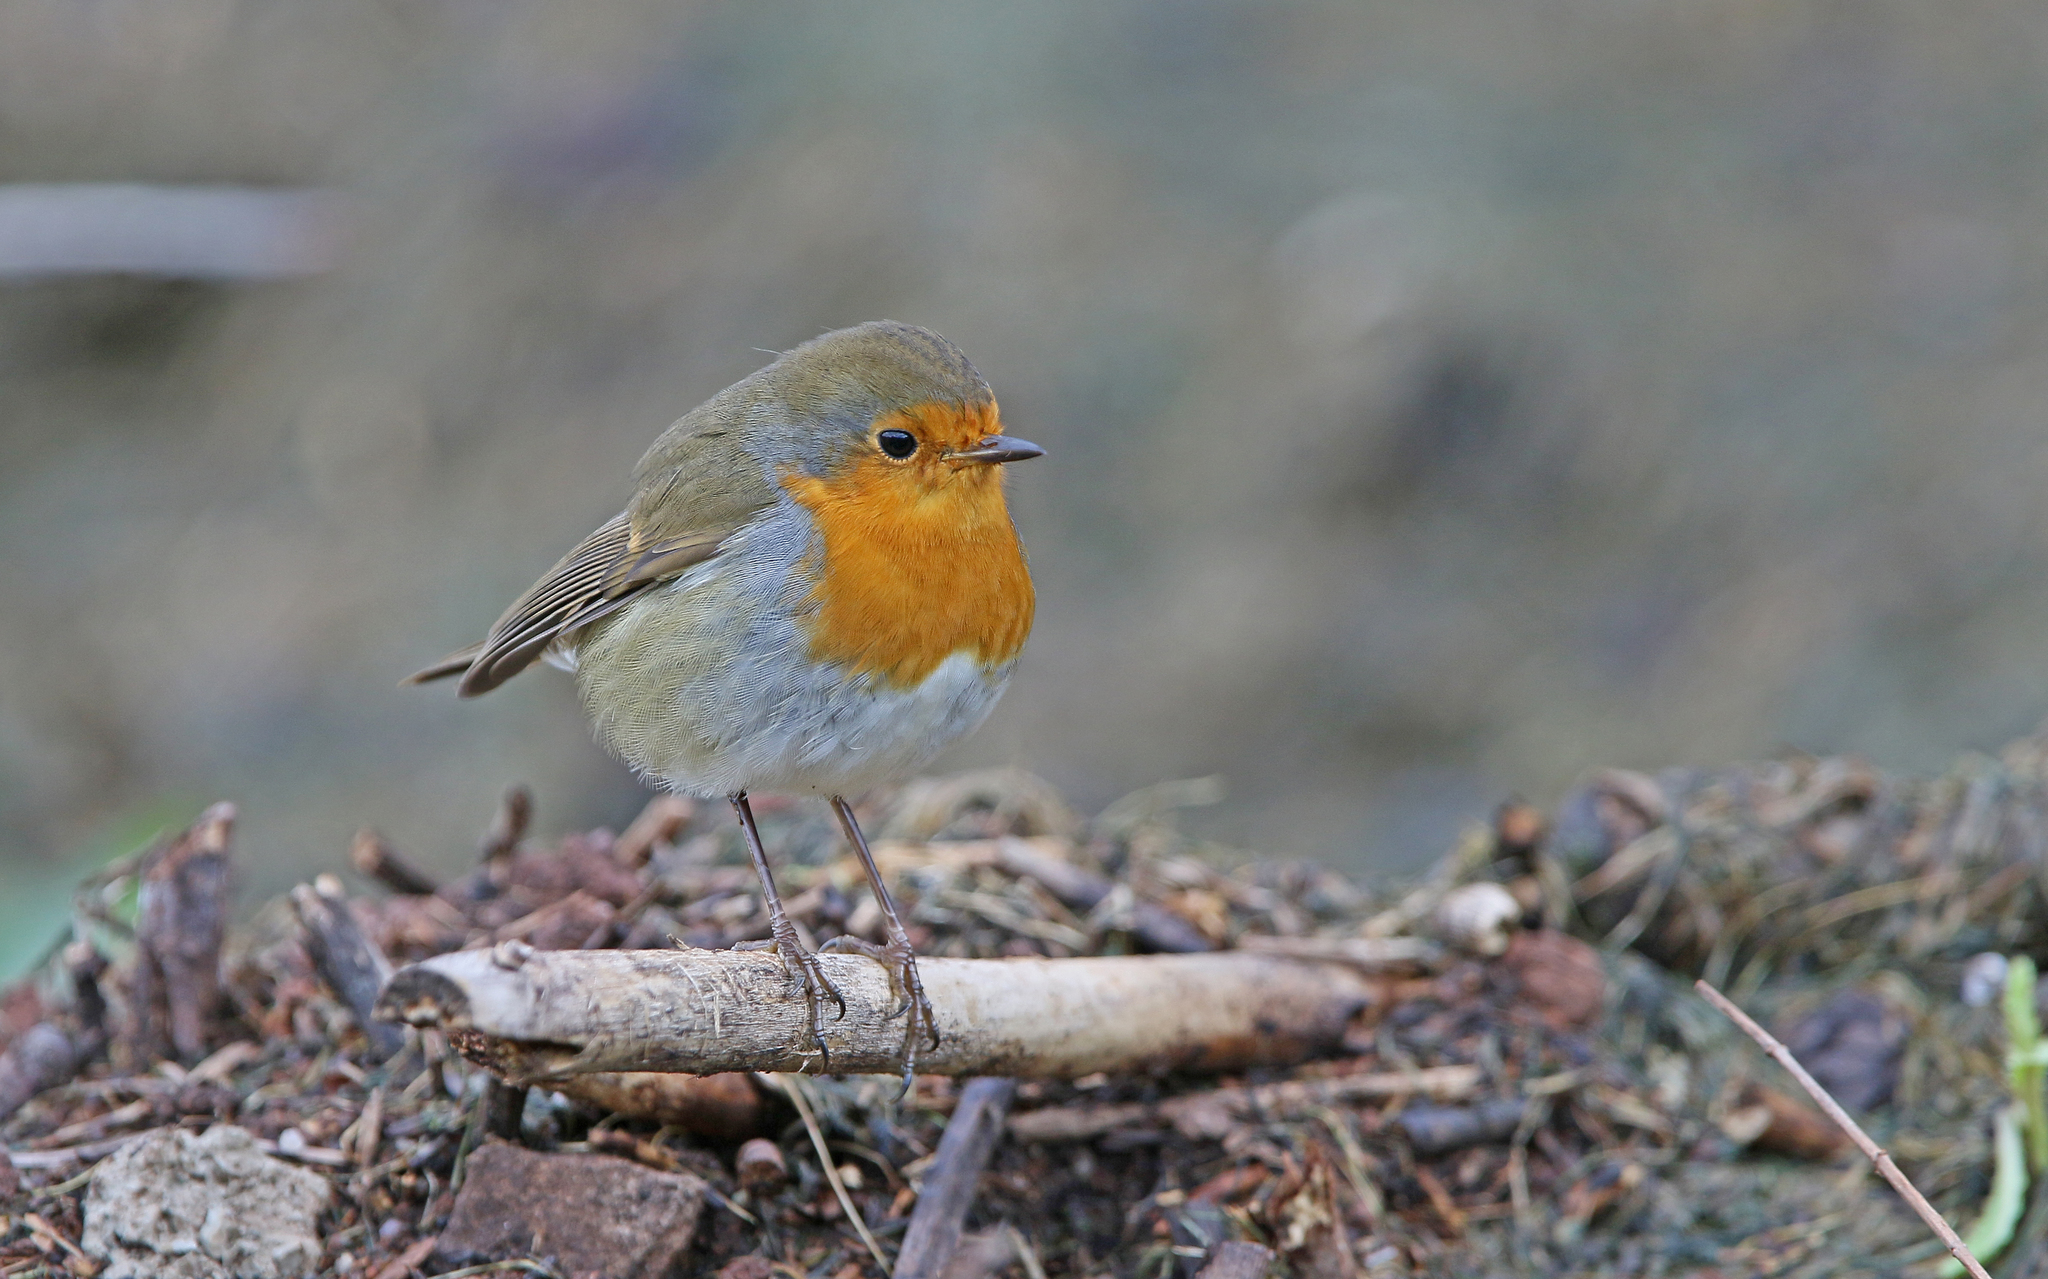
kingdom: Animalia
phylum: Chordata
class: Aves
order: Passeriformes
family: Muscicapidae
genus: Erithacus
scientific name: Erithacus rubecula
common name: European robin
